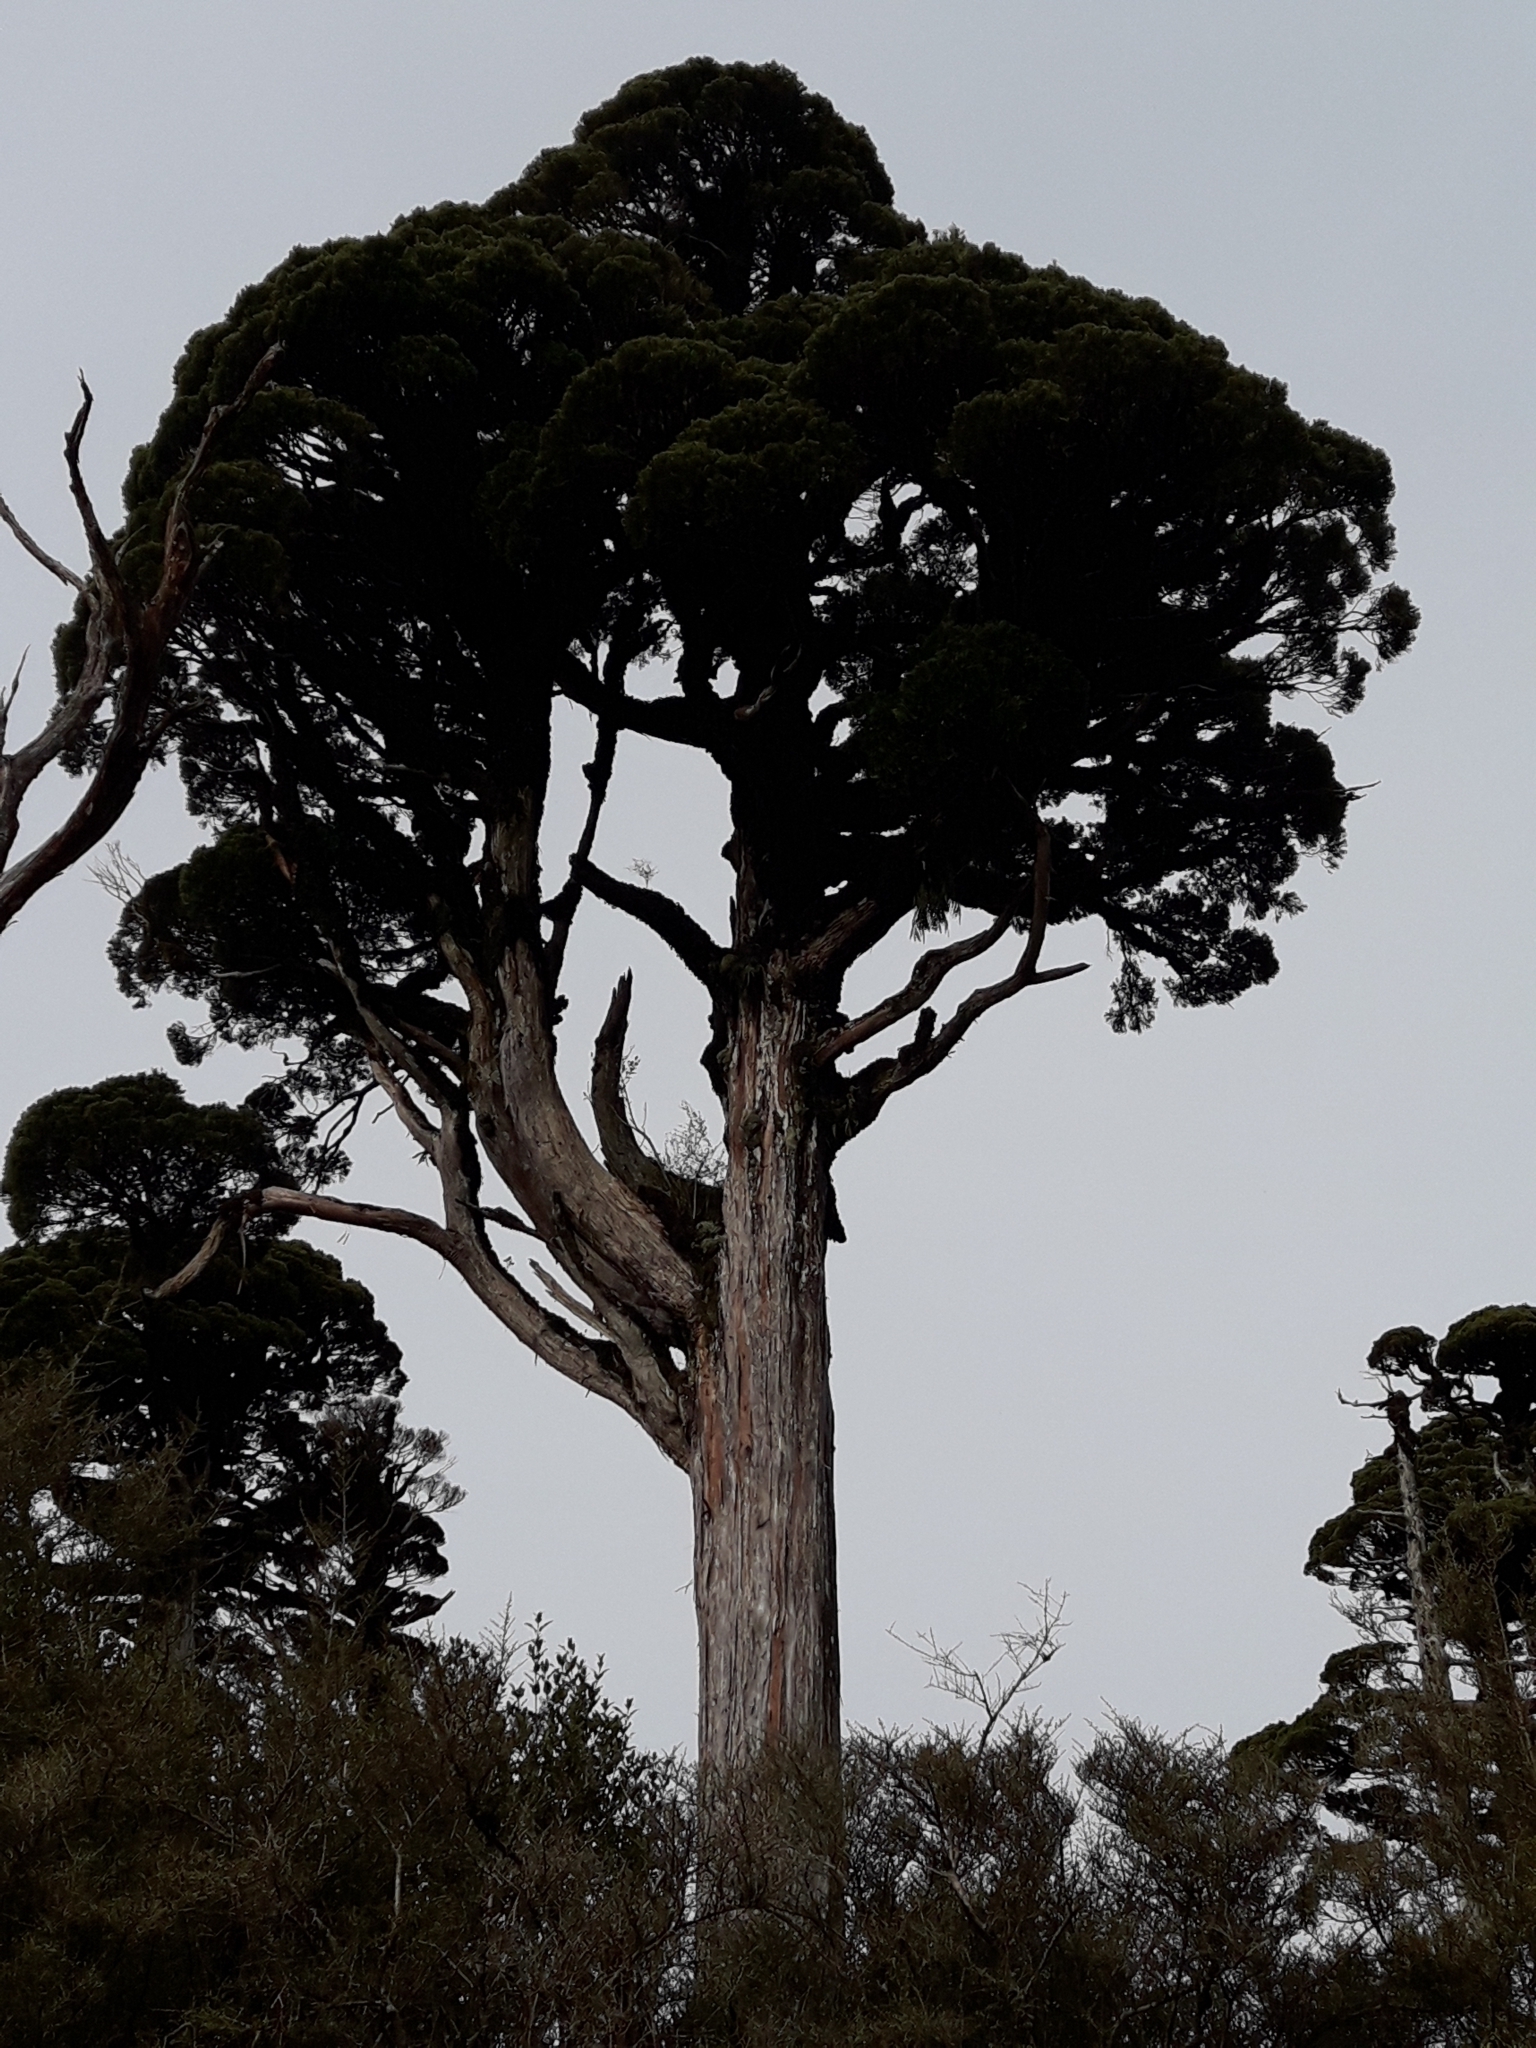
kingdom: Plantae
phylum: Tracheophyta
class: Pinopsida
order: Pinales
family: Cupressaceae
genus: Libocedrus
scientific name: Libocedrus bidwillii
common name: Cedar
